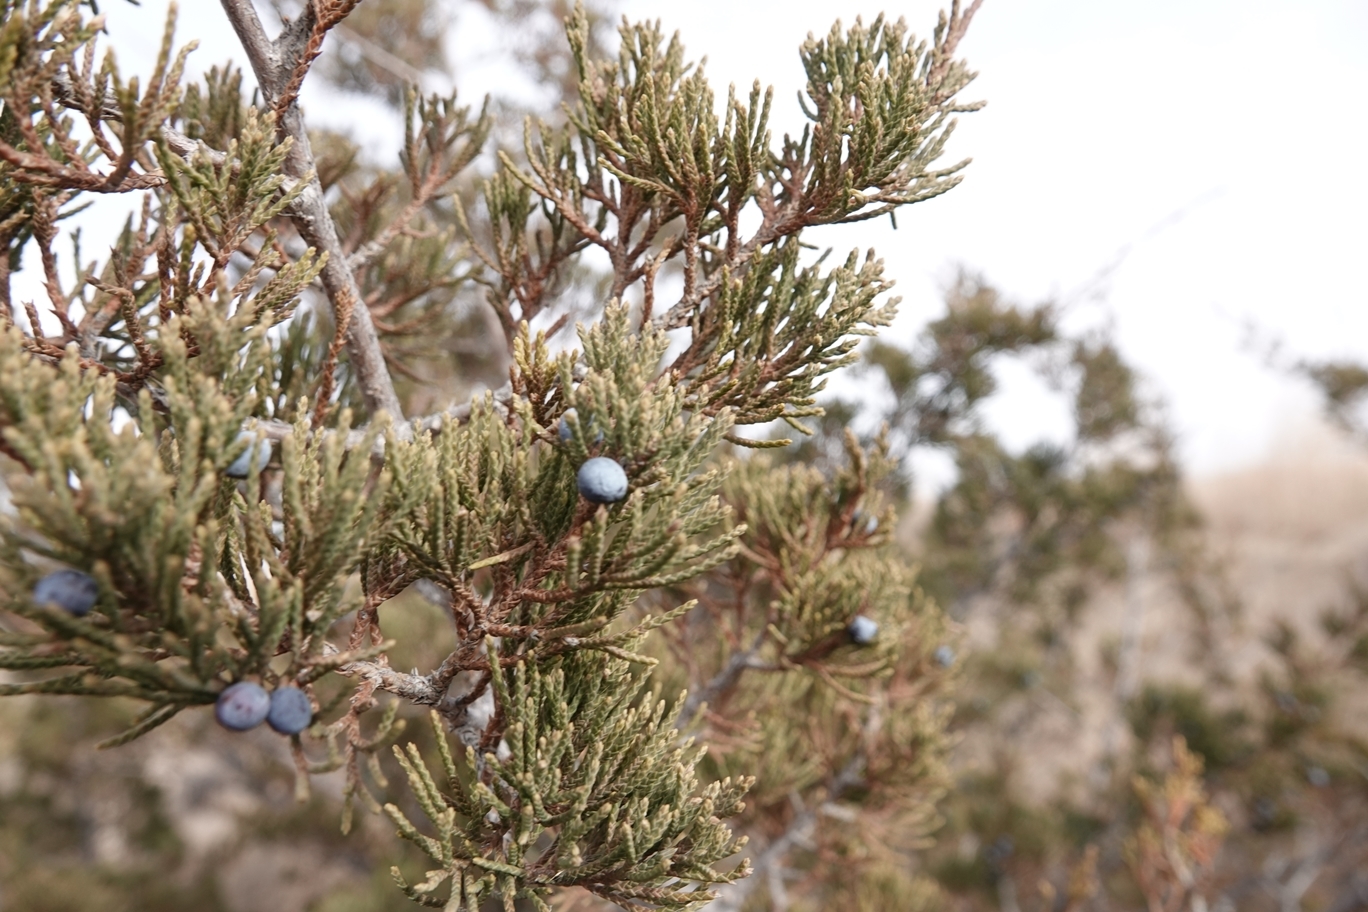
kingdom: Plantae
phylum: Tracheophyta
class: Pinopsida
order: Pinales
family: Cupressaceae
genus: Juniperus
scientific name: Juniperus scopulorum
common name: Rocky mountain juniper
